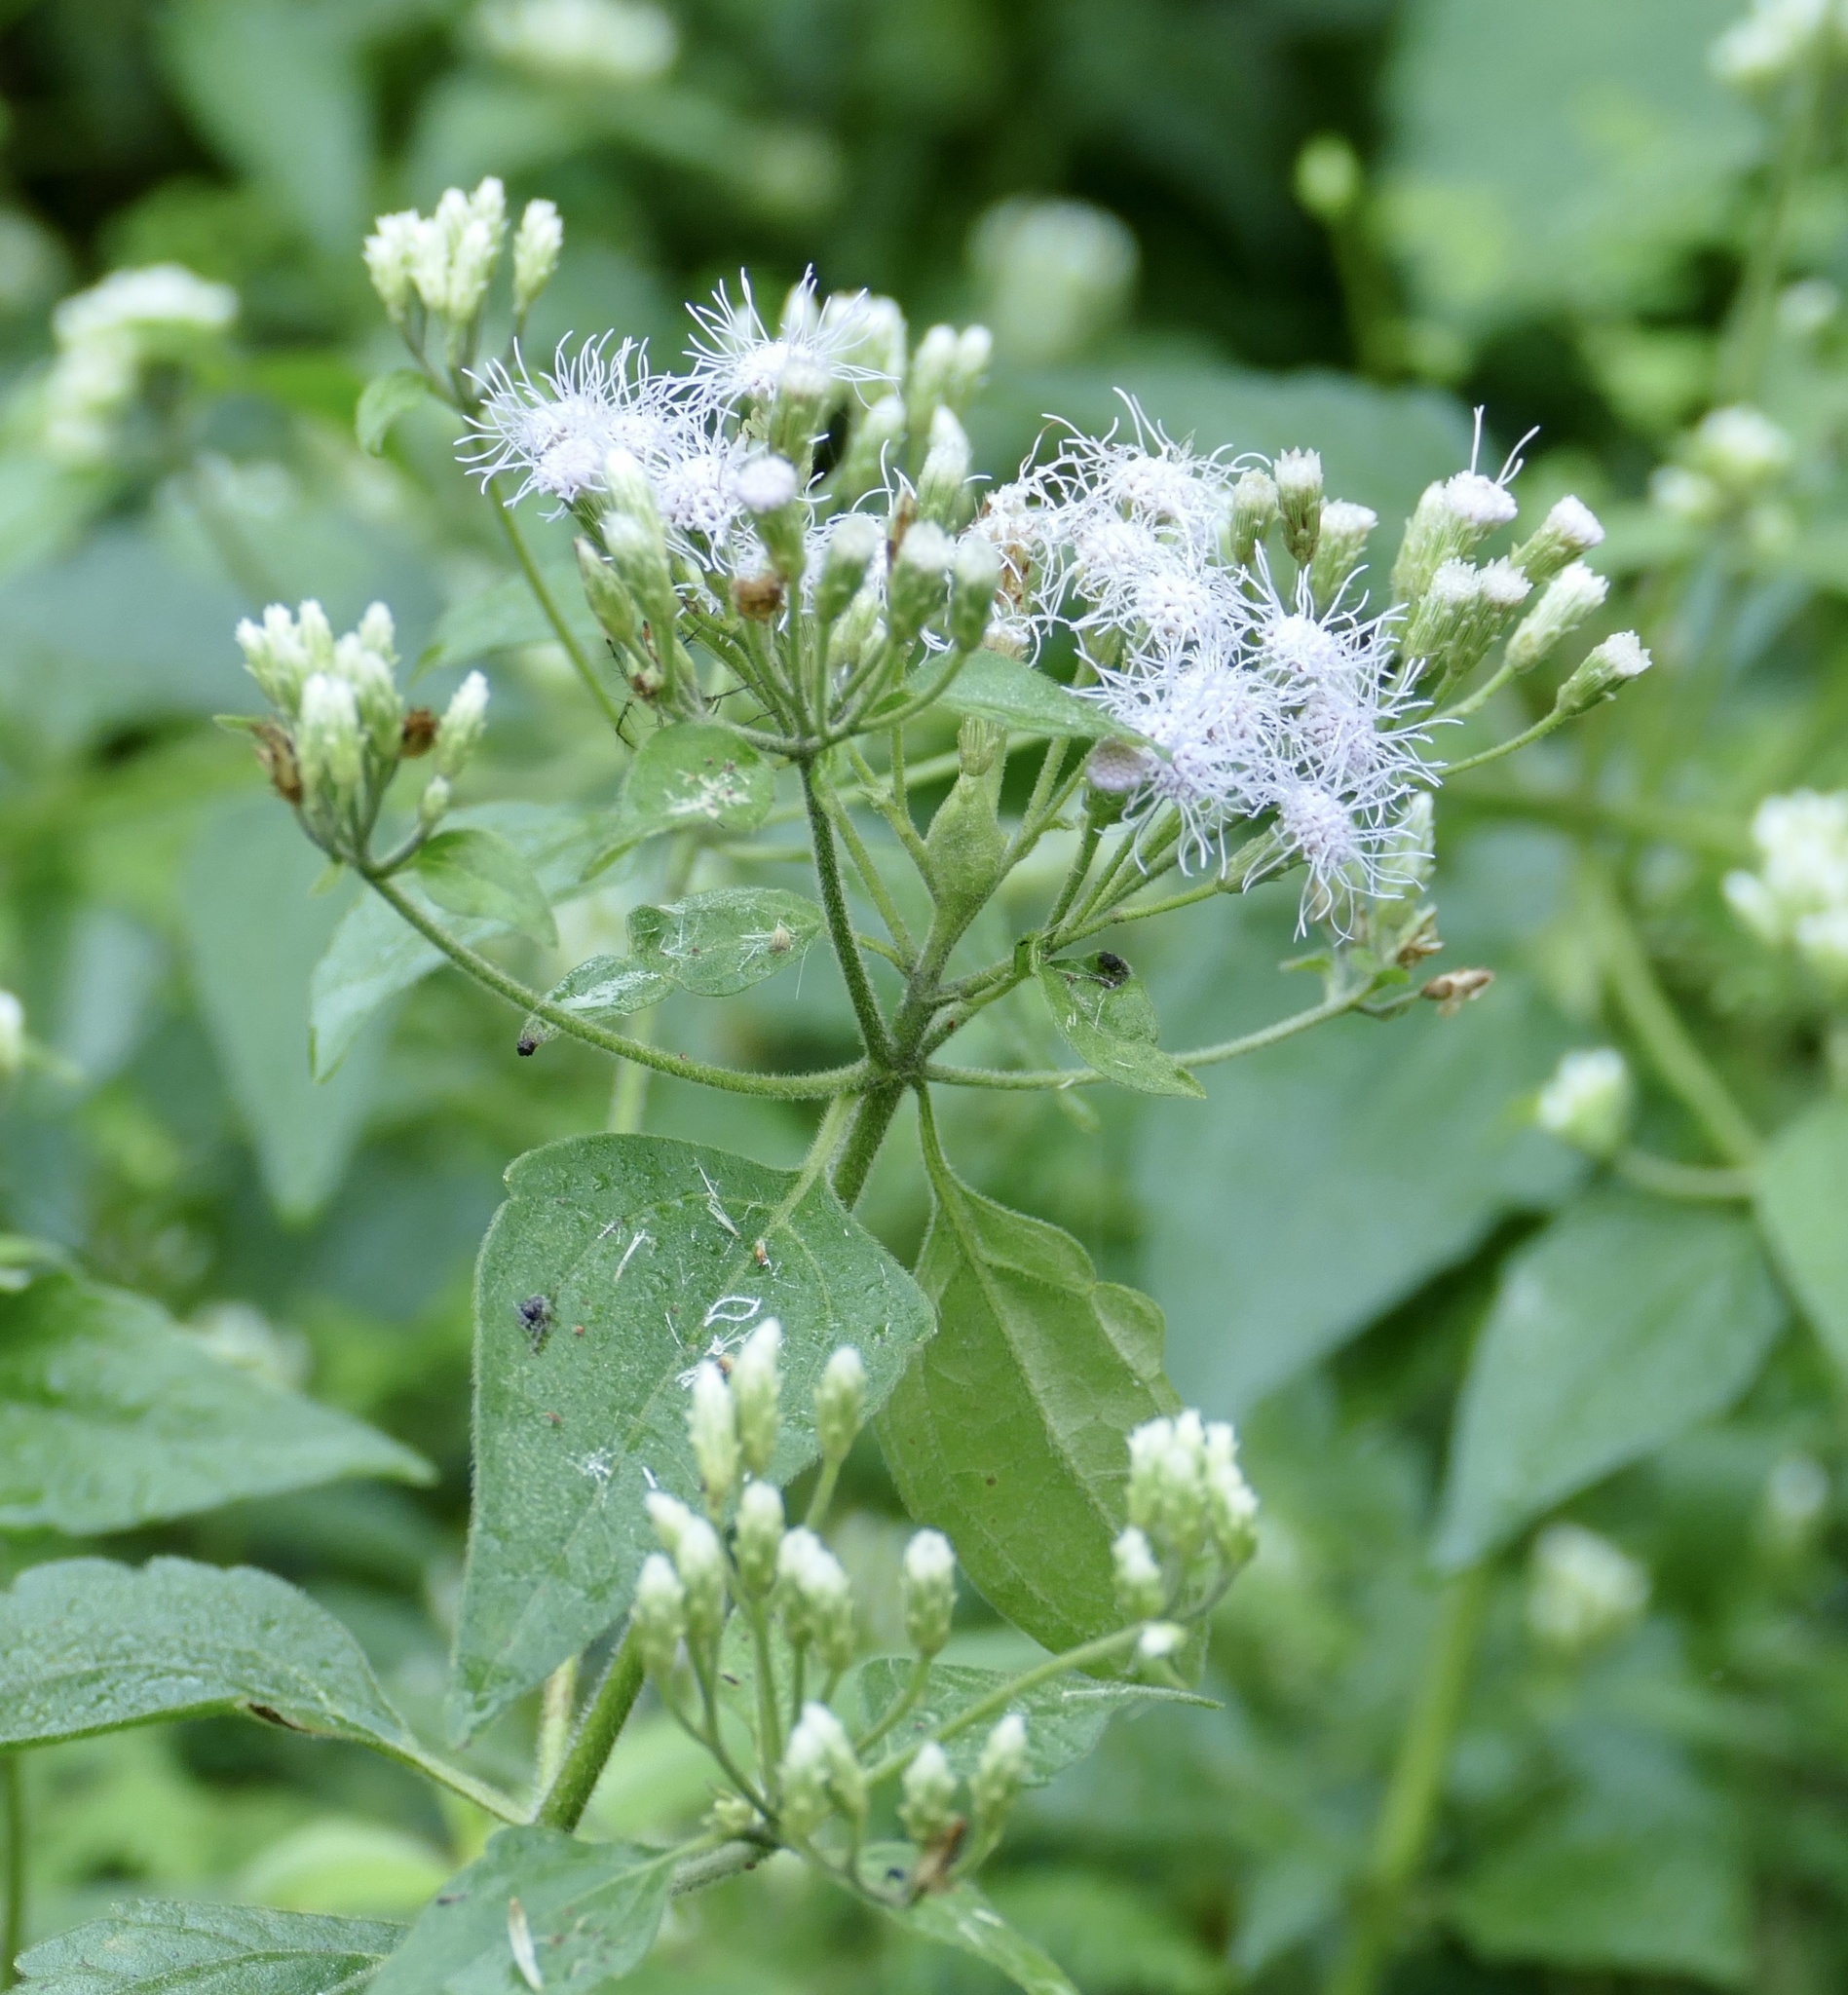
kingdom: Plantae
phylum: Tracheophyta
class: Magnoliopsida
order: Asterales
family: Asteraceae
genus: Chromolaena
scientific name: Chromolaena odorata
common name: Siamweed
